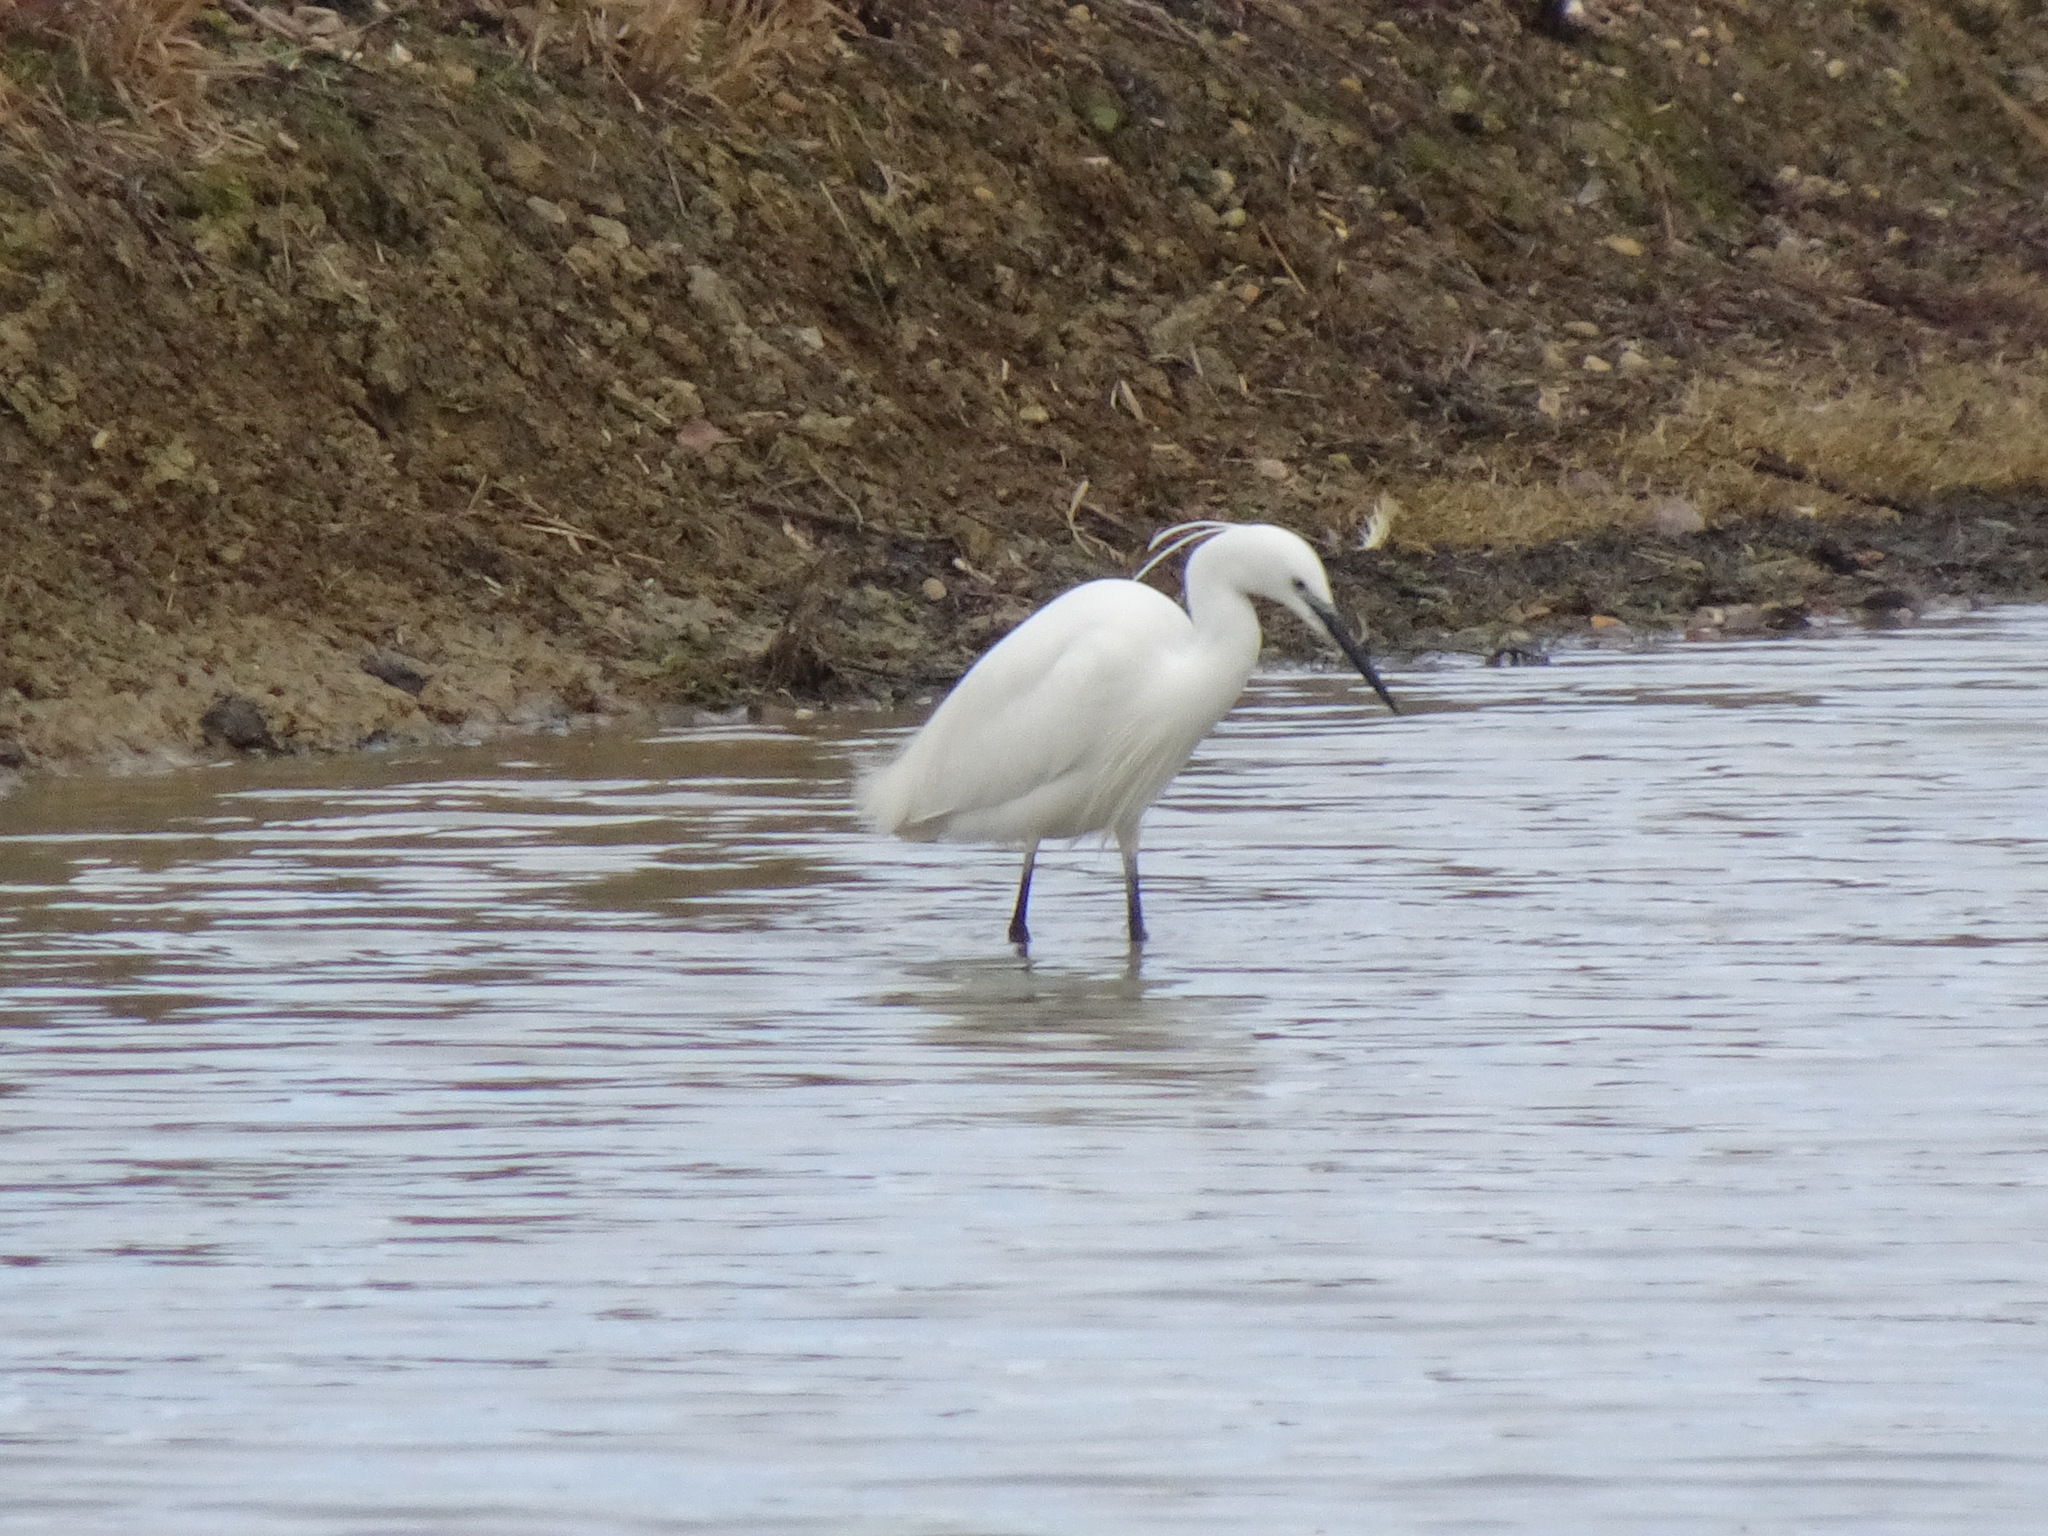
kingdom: Animalia
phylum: Chordata
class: Aves
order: Pelecaniformes
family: Ardeidae
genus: Egretta
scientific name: Egretta garzetta
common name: Little egret
